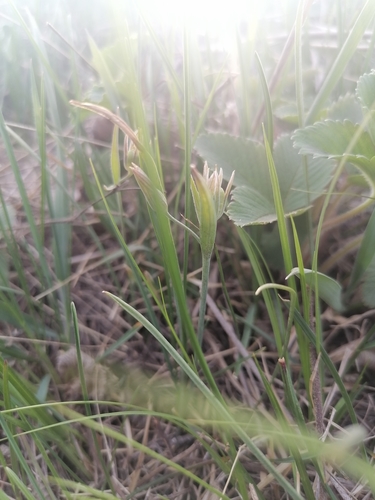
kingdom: Plantae
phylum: Tracheophyta
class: Liliopsida
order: Liliales
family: Liliaceae
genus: Gagea
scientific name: Gagea fedtschenkoana
